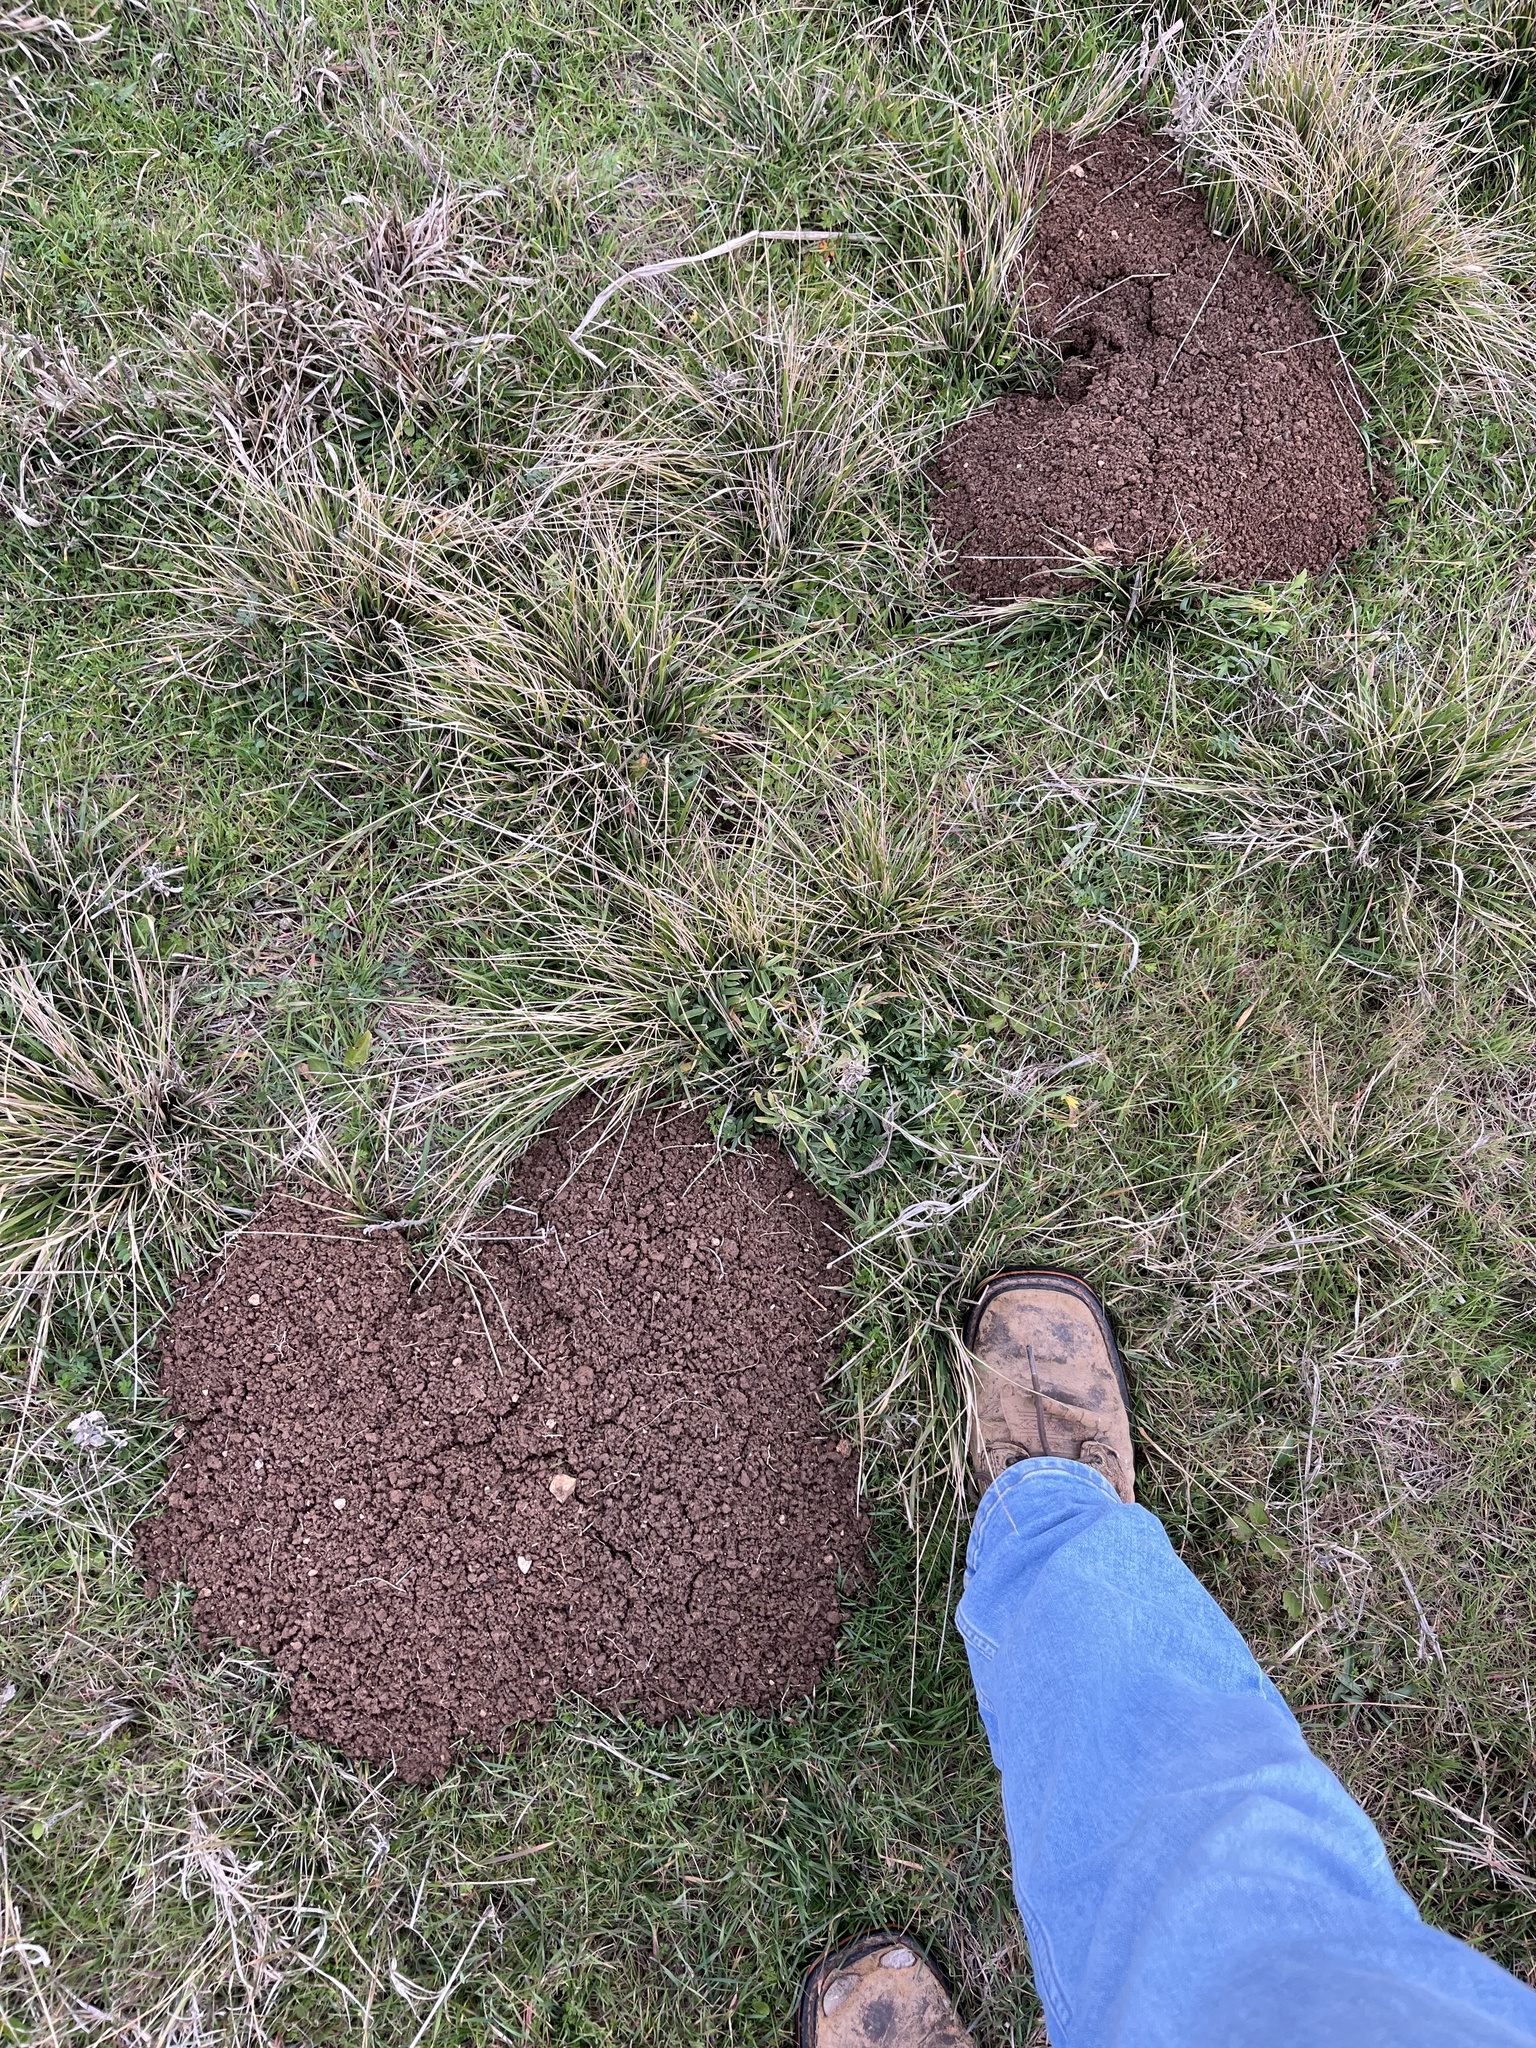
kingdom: Animalia
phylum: Chordata
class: Mammalia
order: Rodentia
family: Geomyidae
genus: Geomys
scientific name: Geomys texensis
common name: Llano pocket gopher
